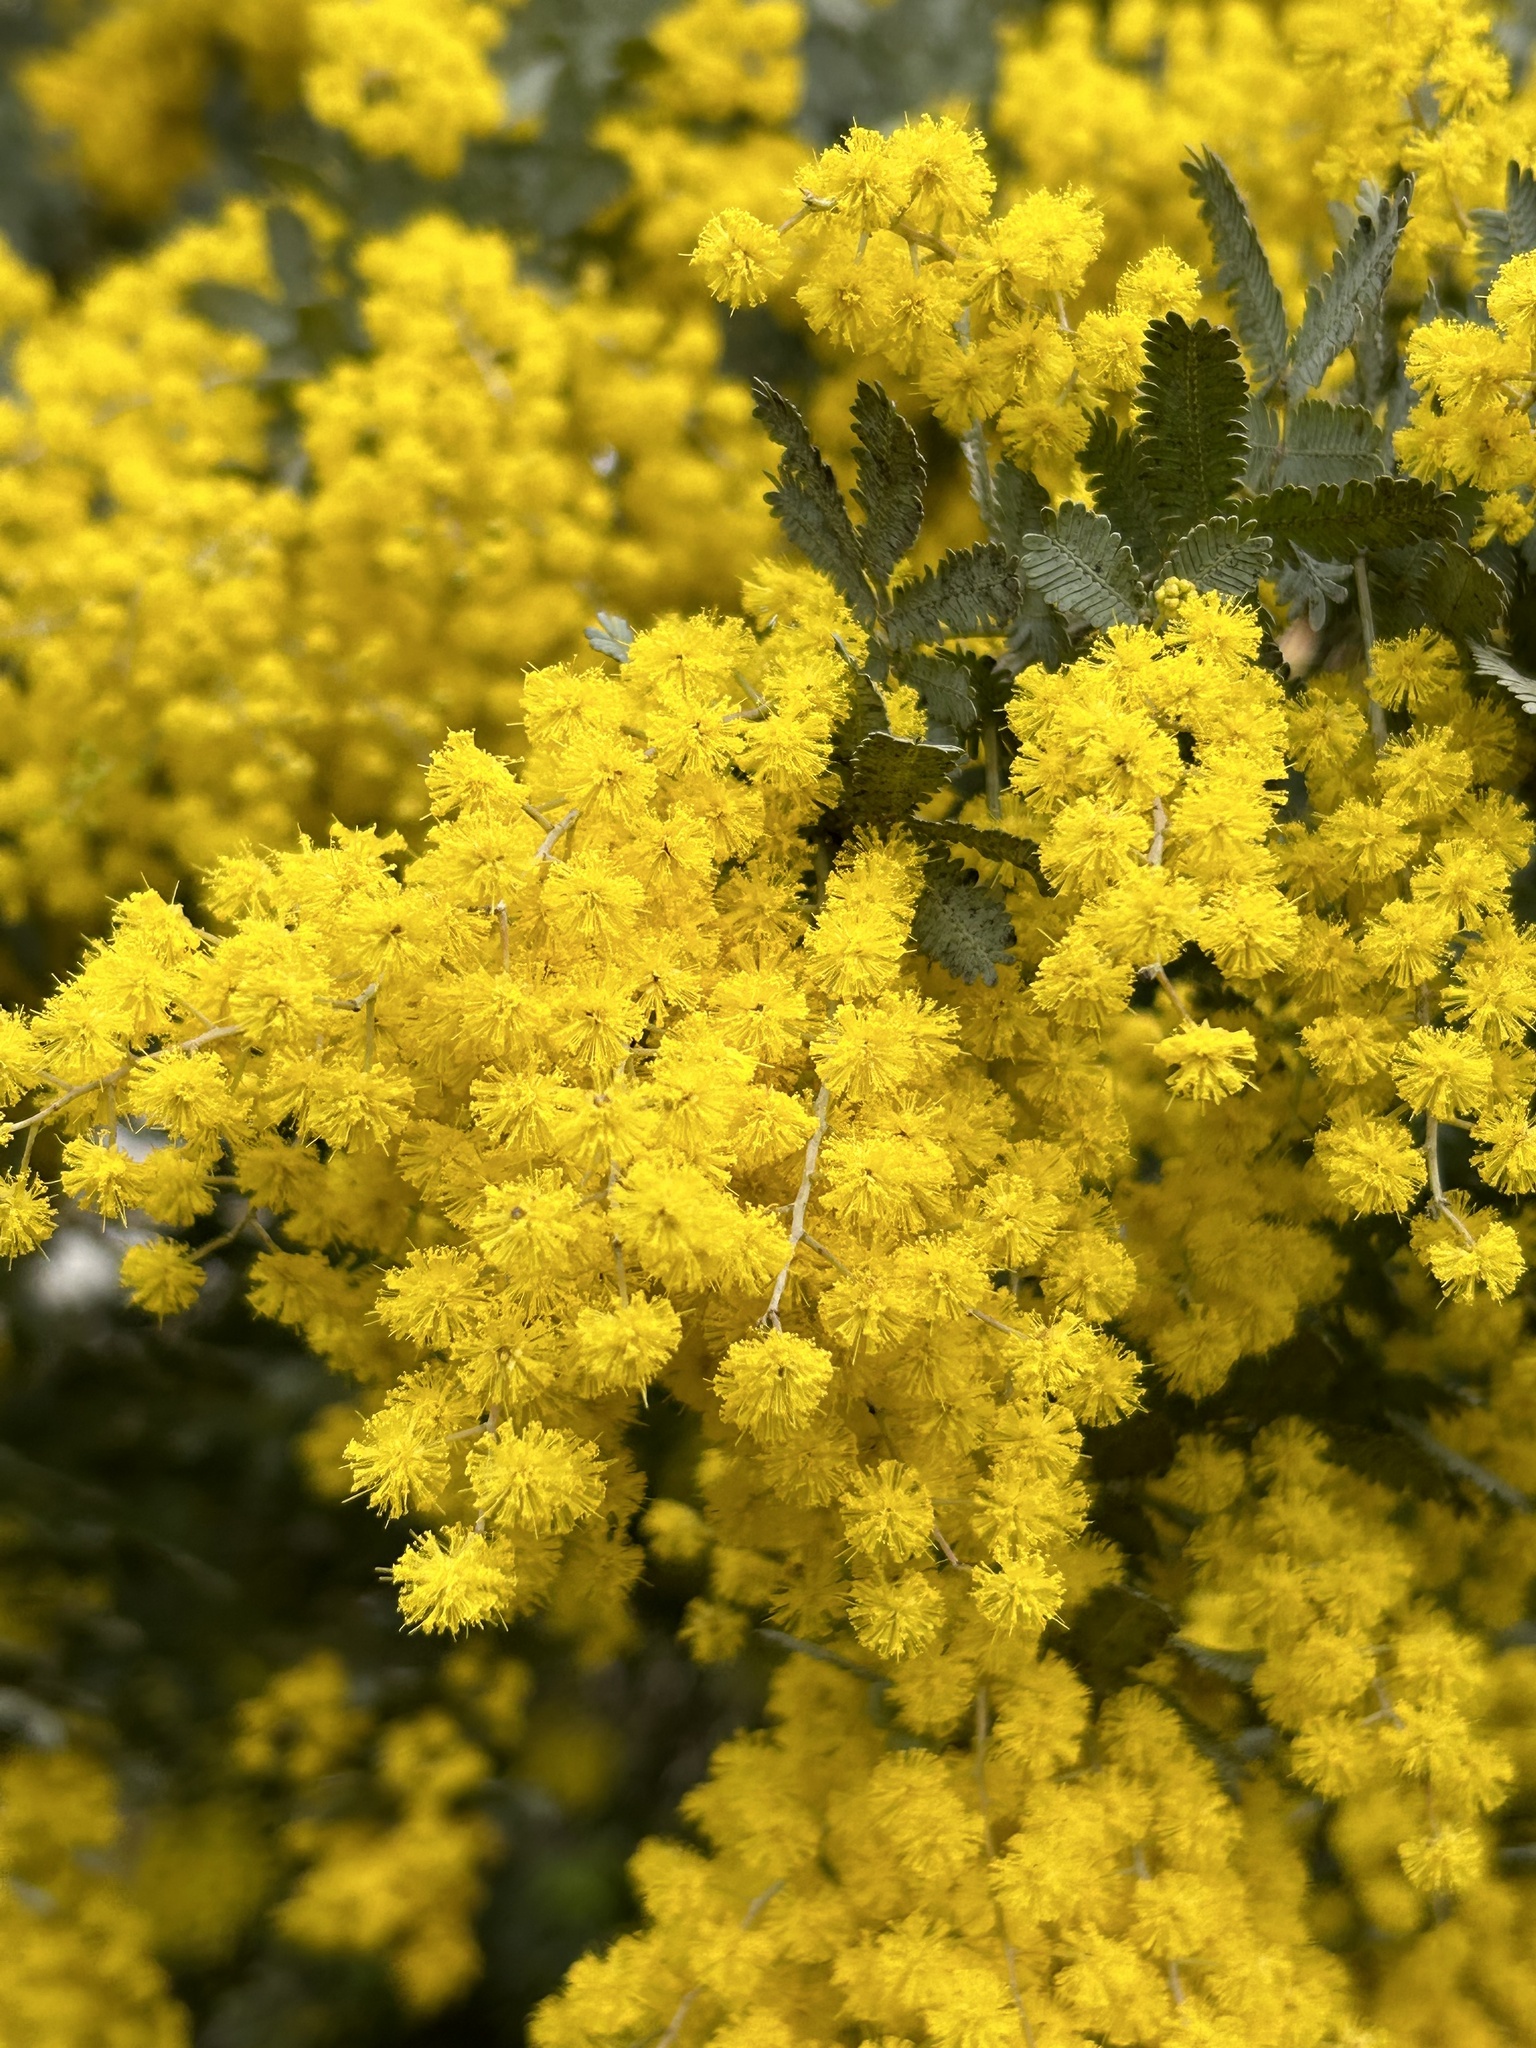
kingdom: Plantae
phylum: Tracheophyta
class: Magnoliopsida
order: Fabales
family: Fabaceae
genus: Acacia
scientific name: Acacia baileyana
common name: Cootamundra wattle
